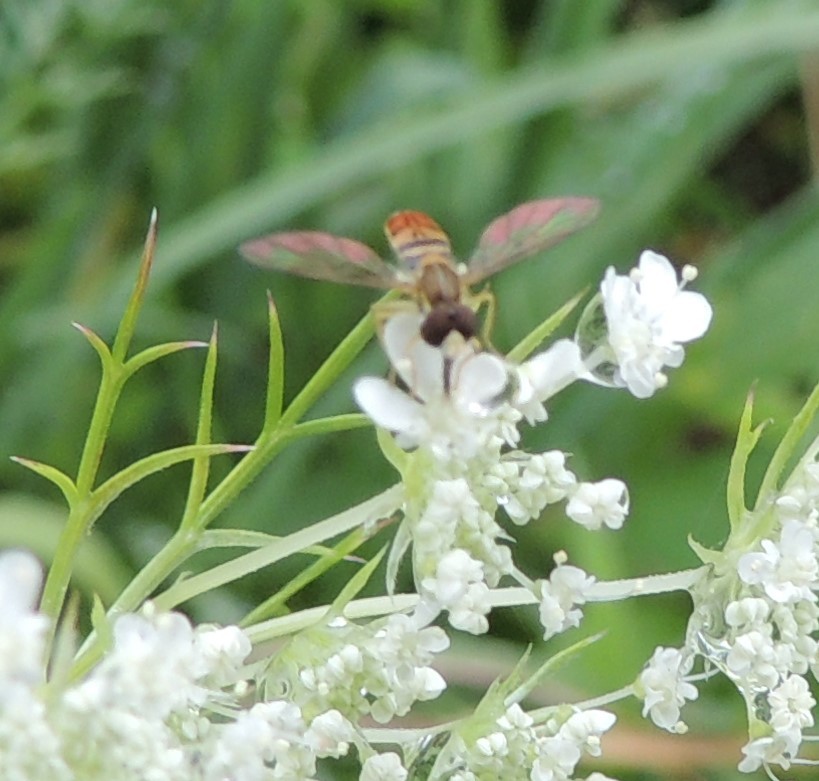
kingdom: Animalia
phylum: Arthropoda
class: Insecta
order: Diptera
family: Syrphidae
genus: Toxomerus
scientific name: Toxomerus marginatus
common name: Syrphid fly
